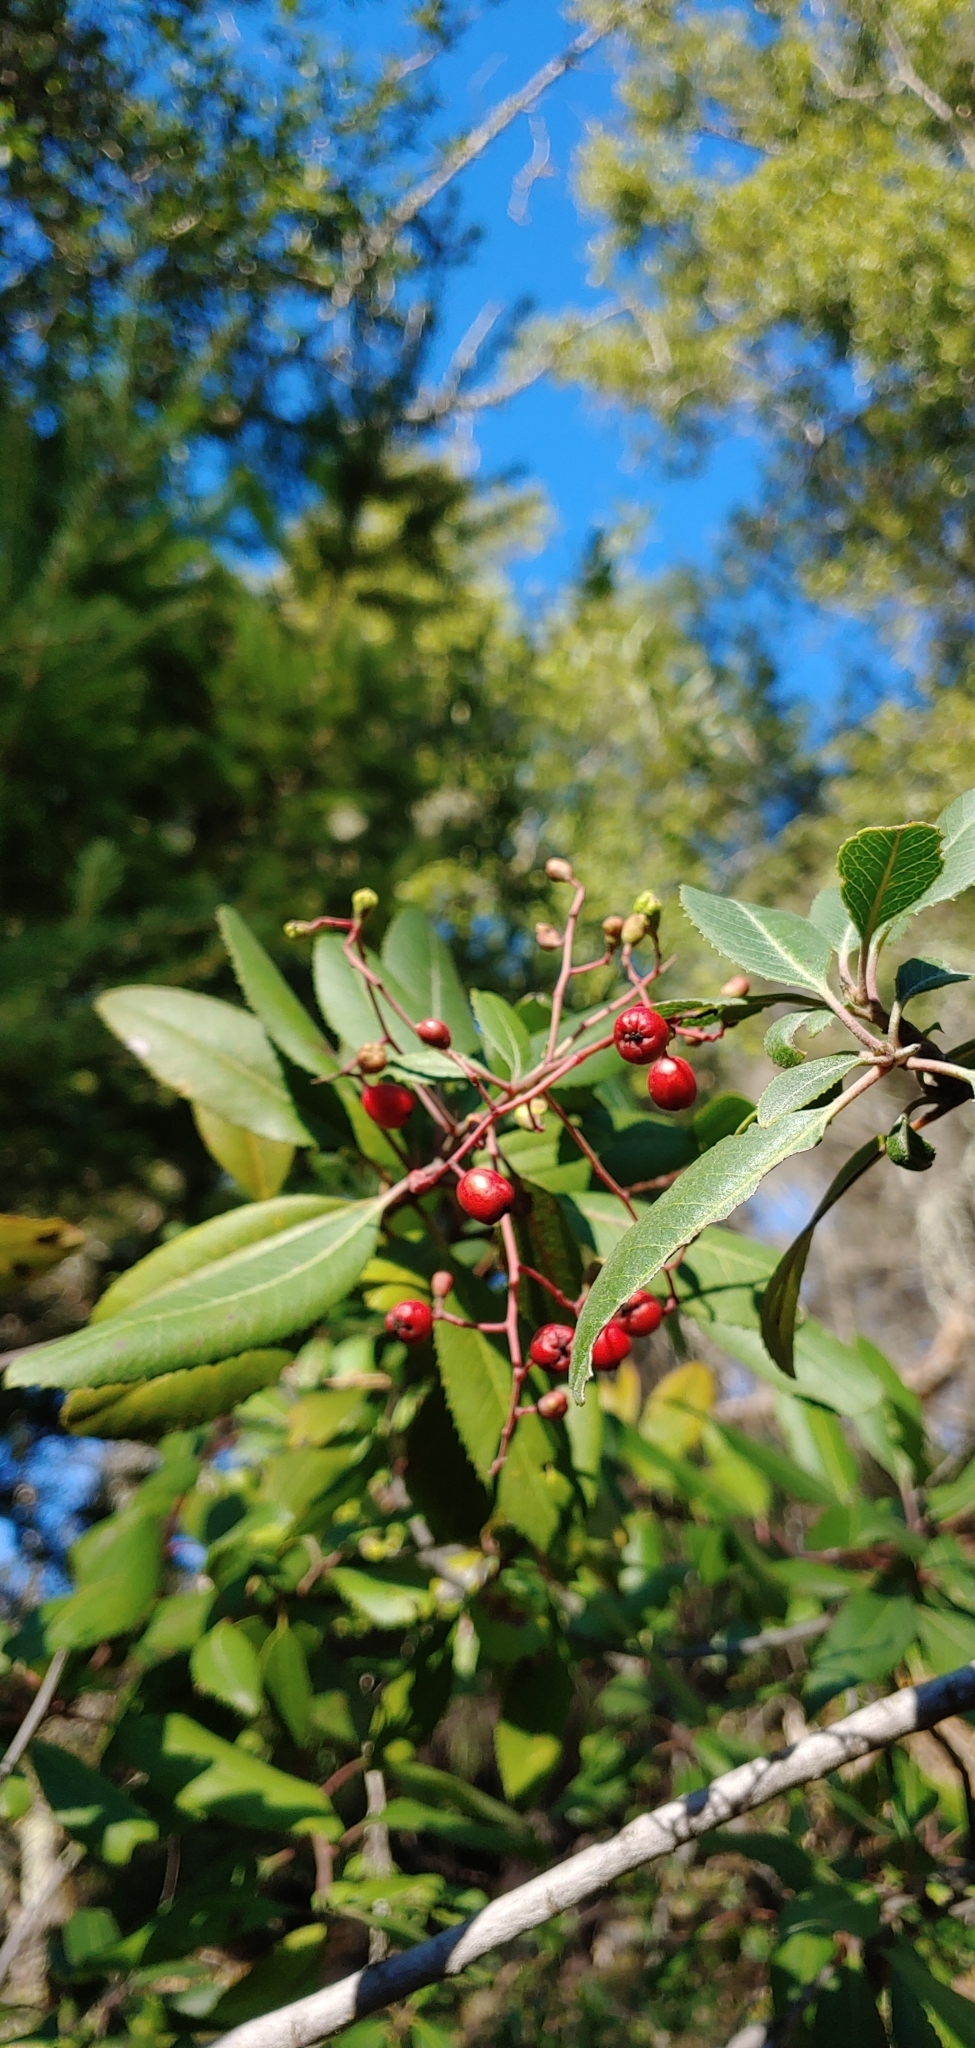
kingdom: Plantae
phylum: Tracheophyta
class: Magnoliopsida
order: Rosales
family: Rosaceae
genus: Heteromeles
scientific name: Heteromeles arbutifolia
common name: California-holly
